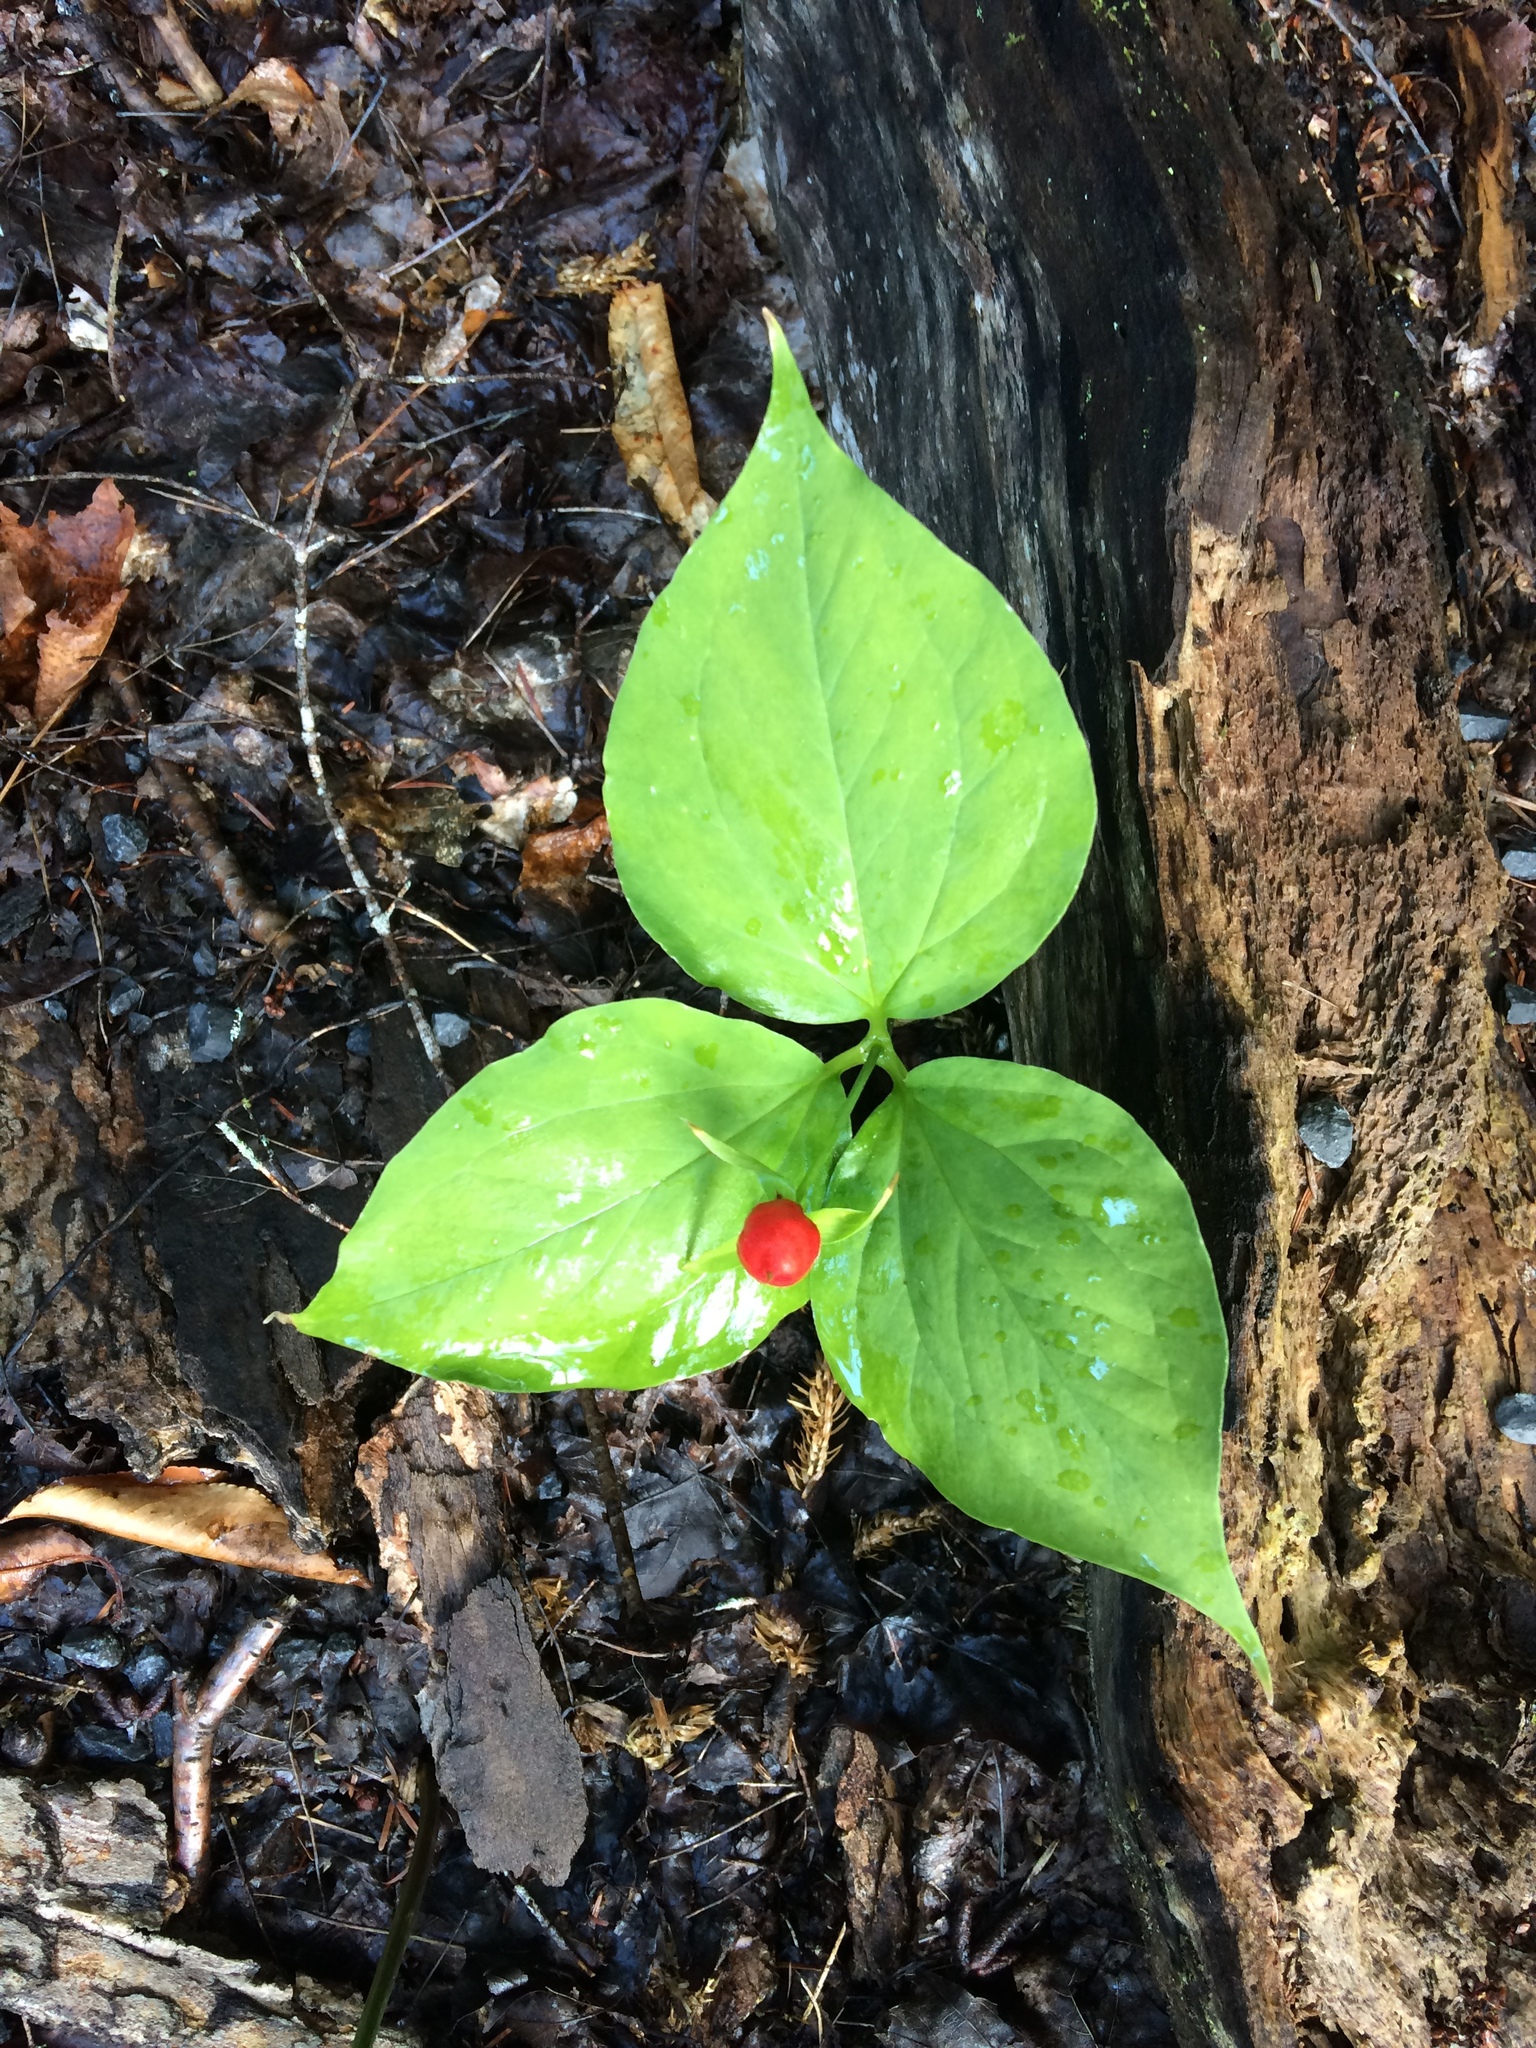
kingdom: Plantae
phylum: Tracheophyta
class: Liliopsida
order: Liliales
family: Melanthiaceae
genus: Trillium
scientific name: Trillium undulatum
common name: Paint trillium
